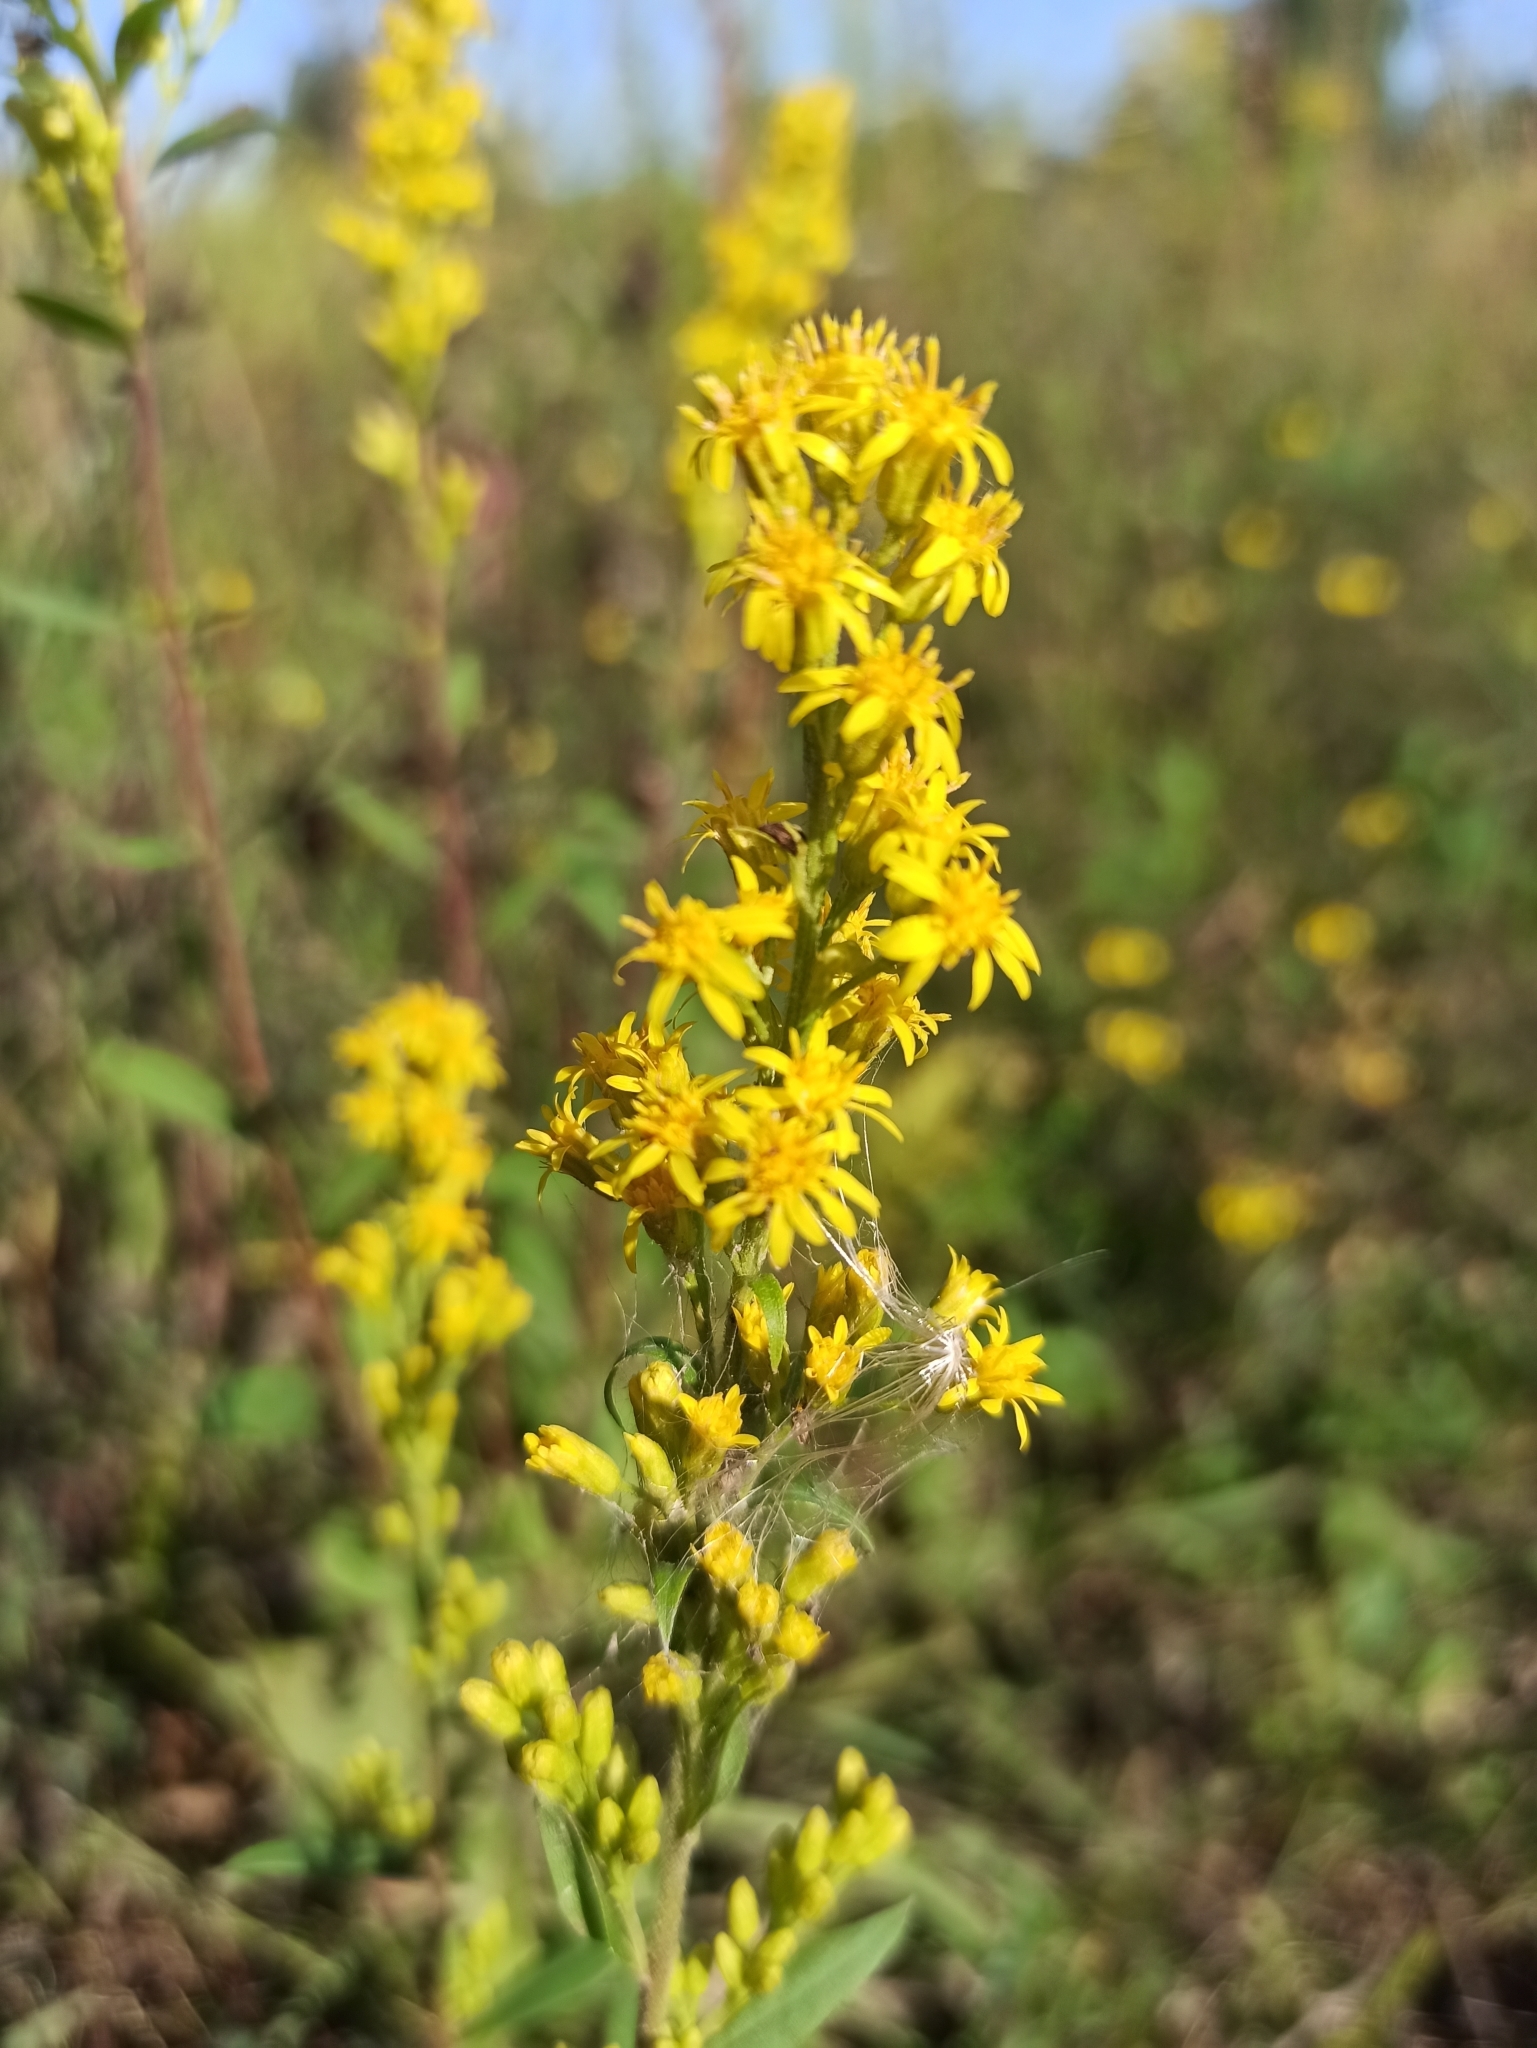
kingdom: Plantae
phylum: Tracheophyta
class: Magnoliopsida
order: Asterales
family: Asteraceae
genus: Solidago
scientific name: Solidago virgaurea
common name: Goldenrod
